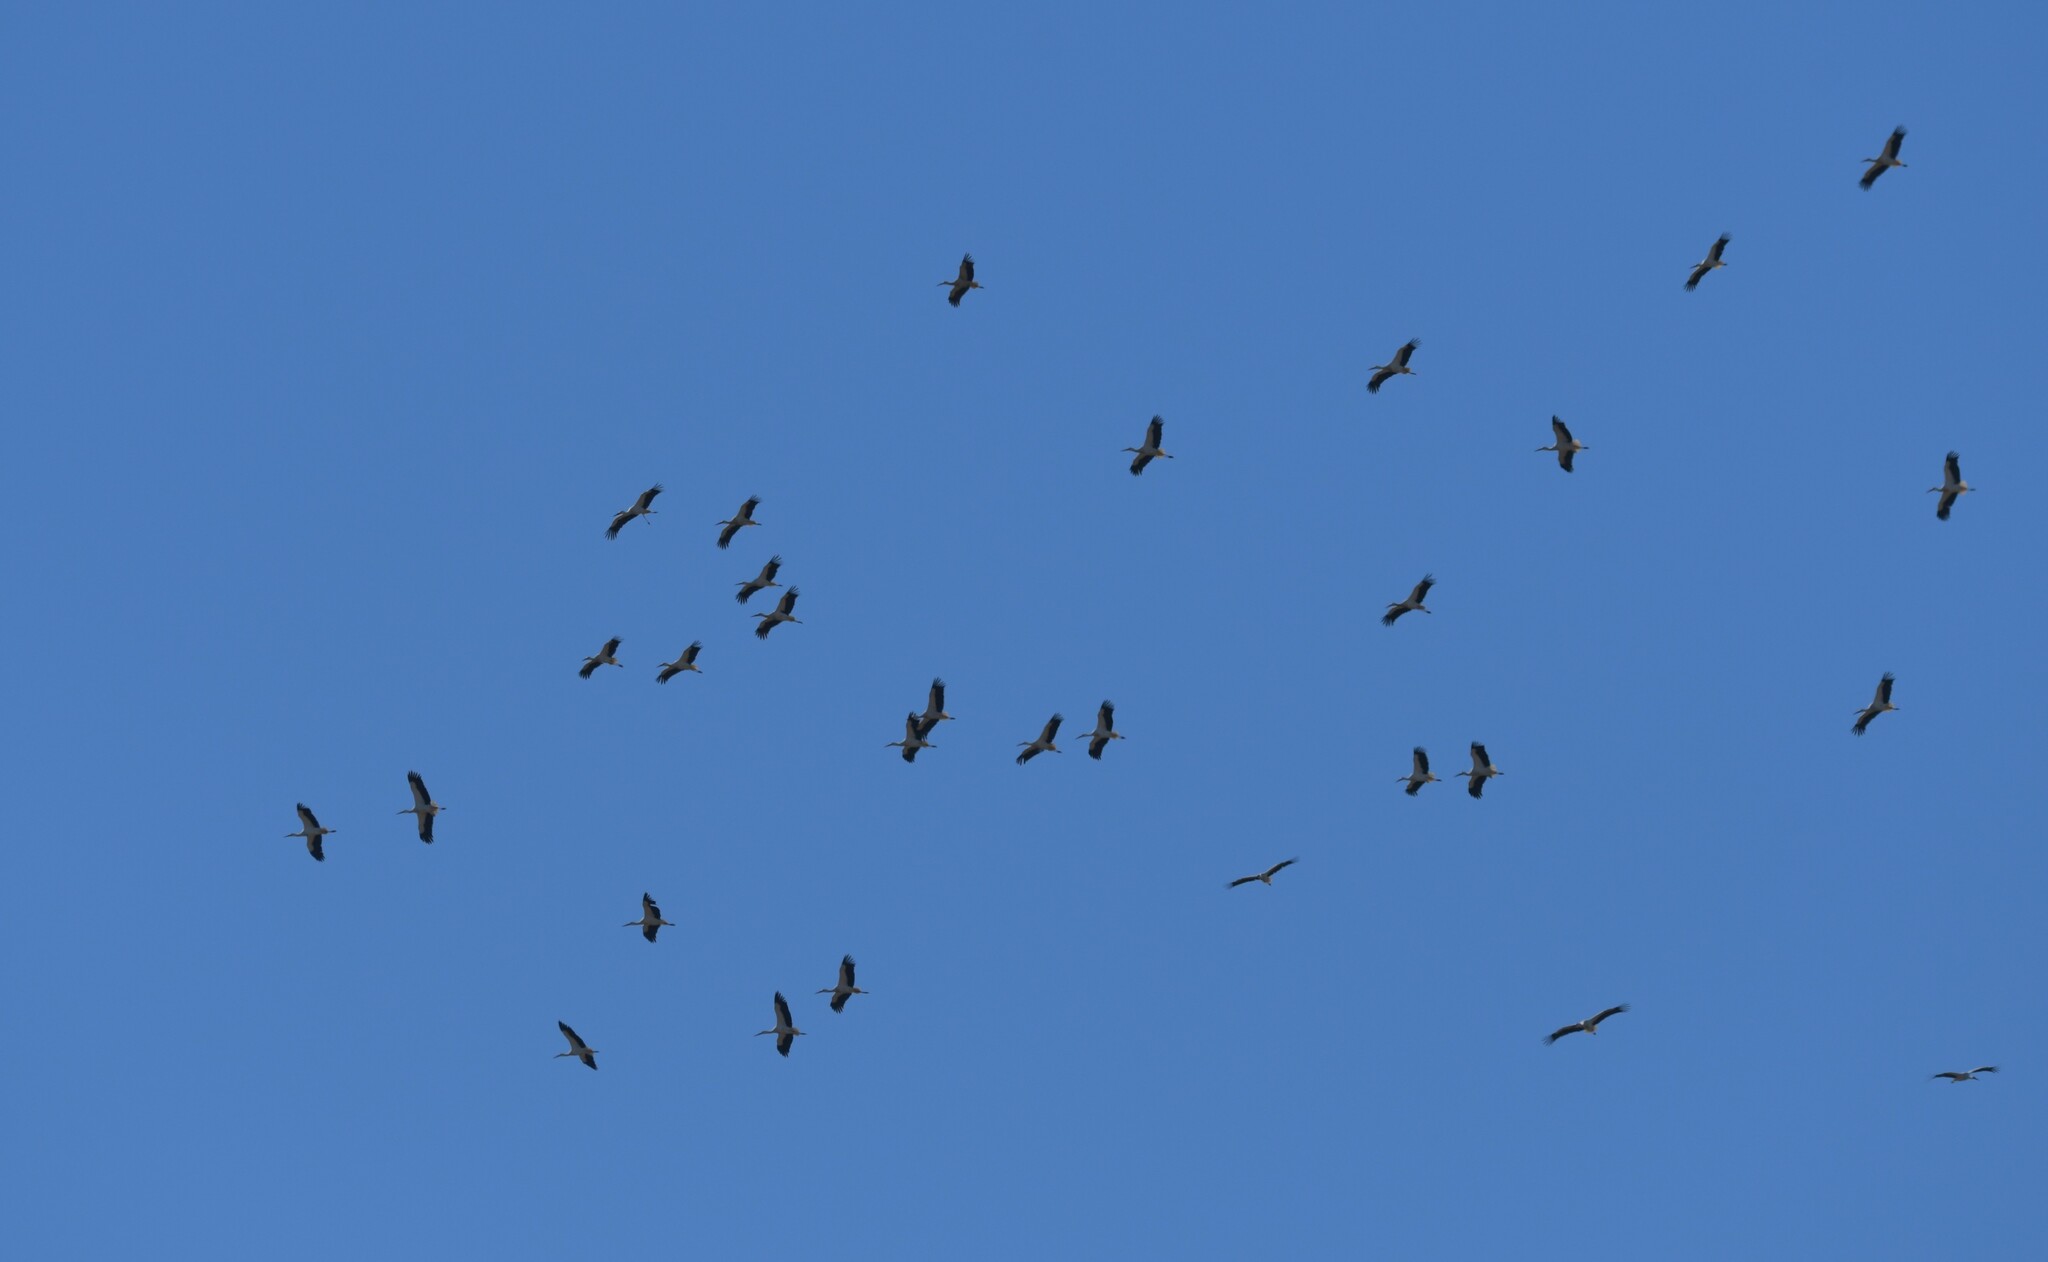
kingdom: Animalia
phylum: Chordata
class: Aves
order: Ciconiiformes
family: Ciconiidae
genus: Ciconia
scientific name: Ciconia ciconia
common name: White stork
